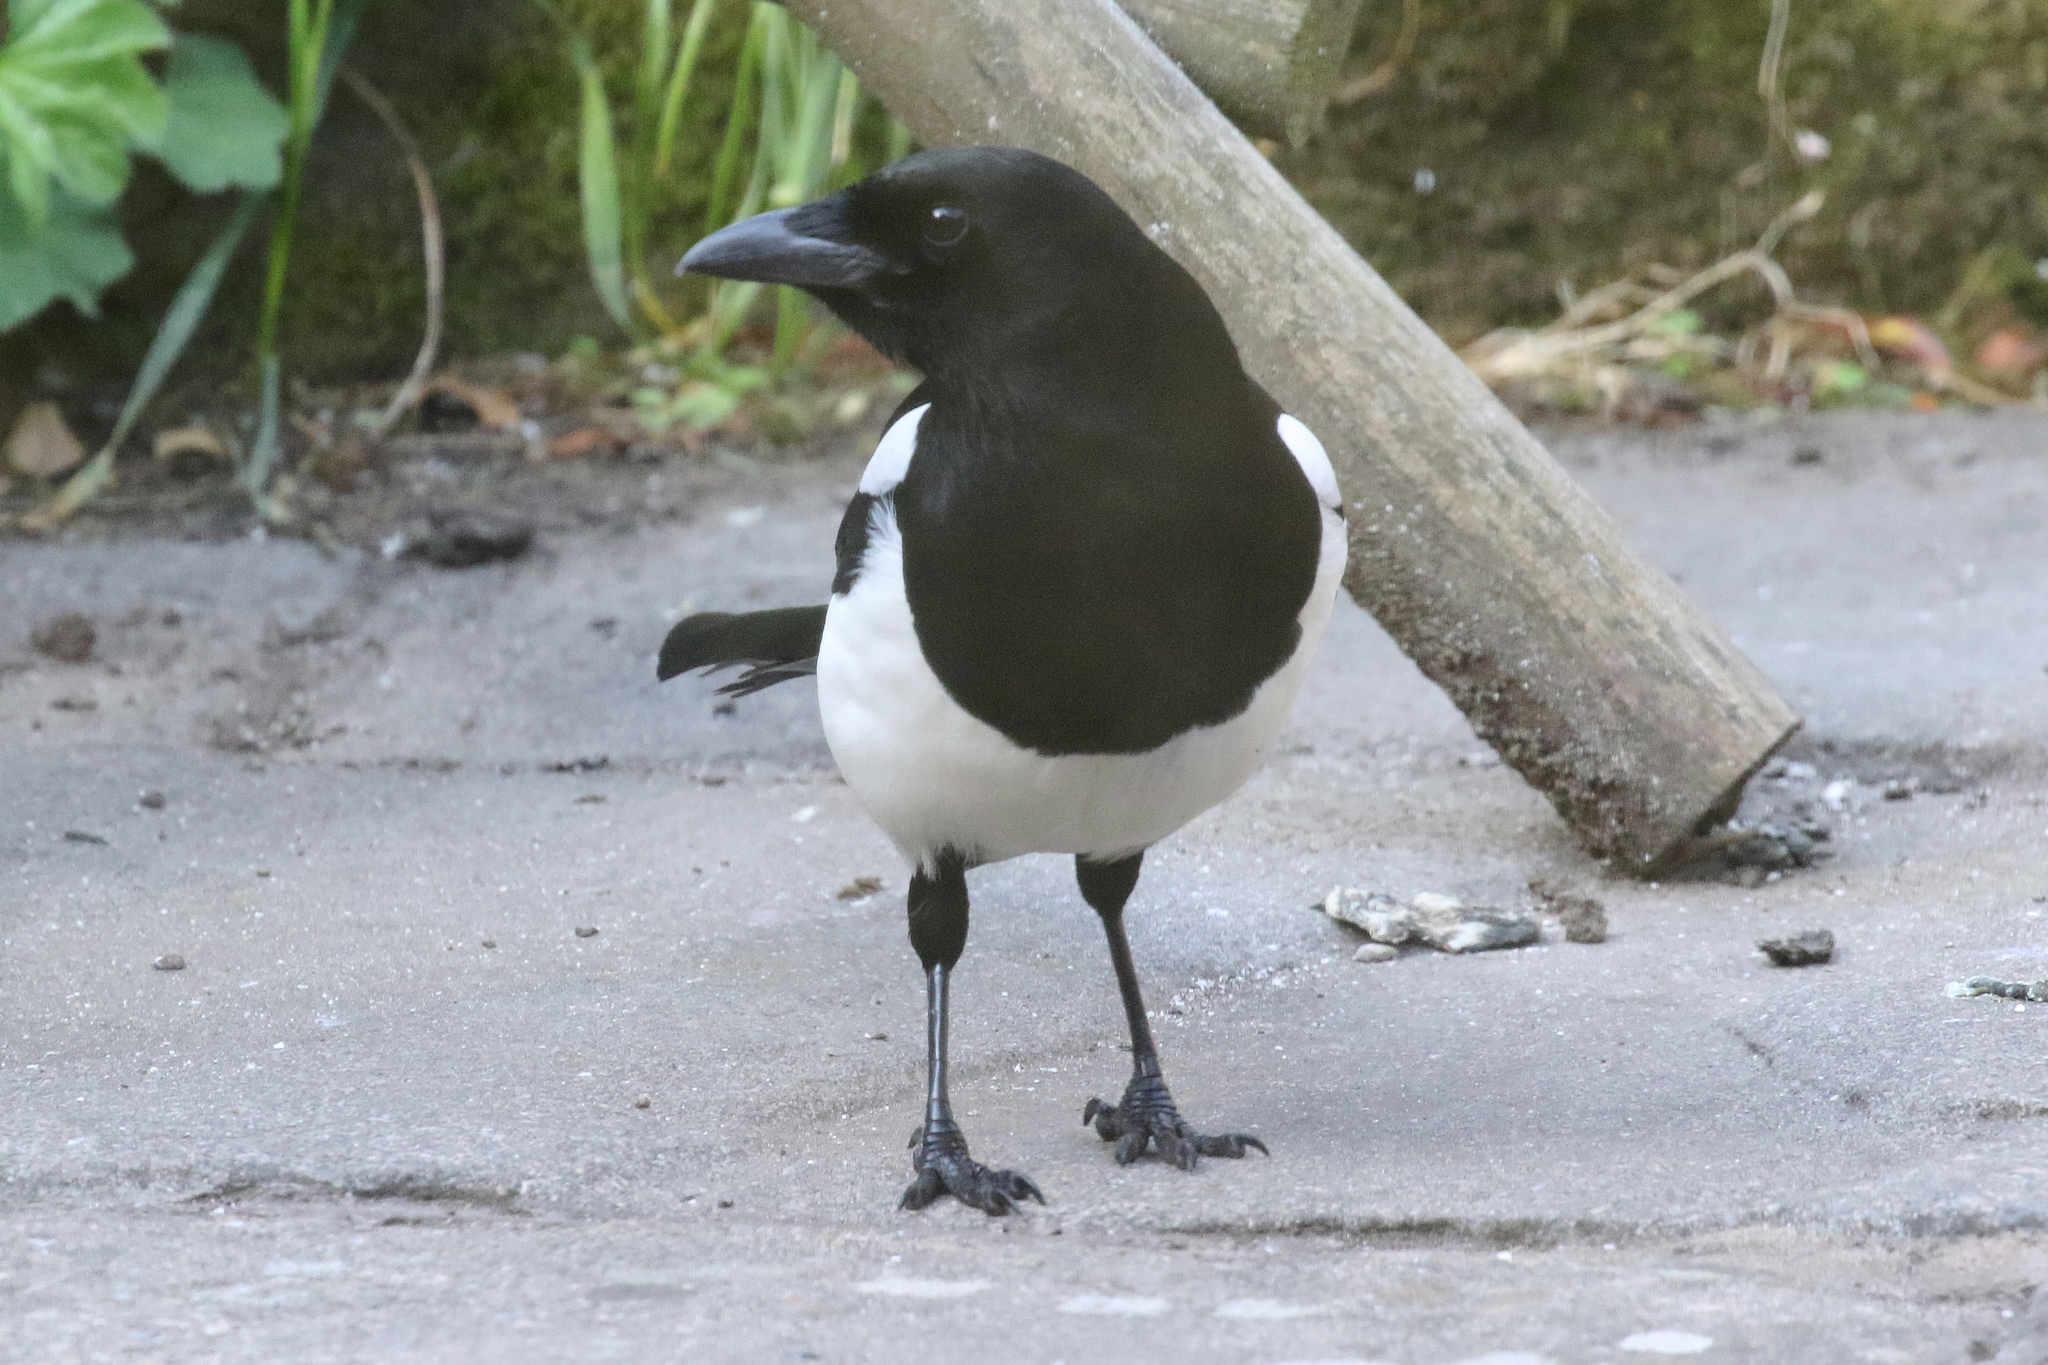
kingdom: Animalia
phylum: Chordata
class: Aves
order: Passeriformes
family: Corvidae
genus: Pica
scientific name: Pica pica
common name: Eurasian magpie
